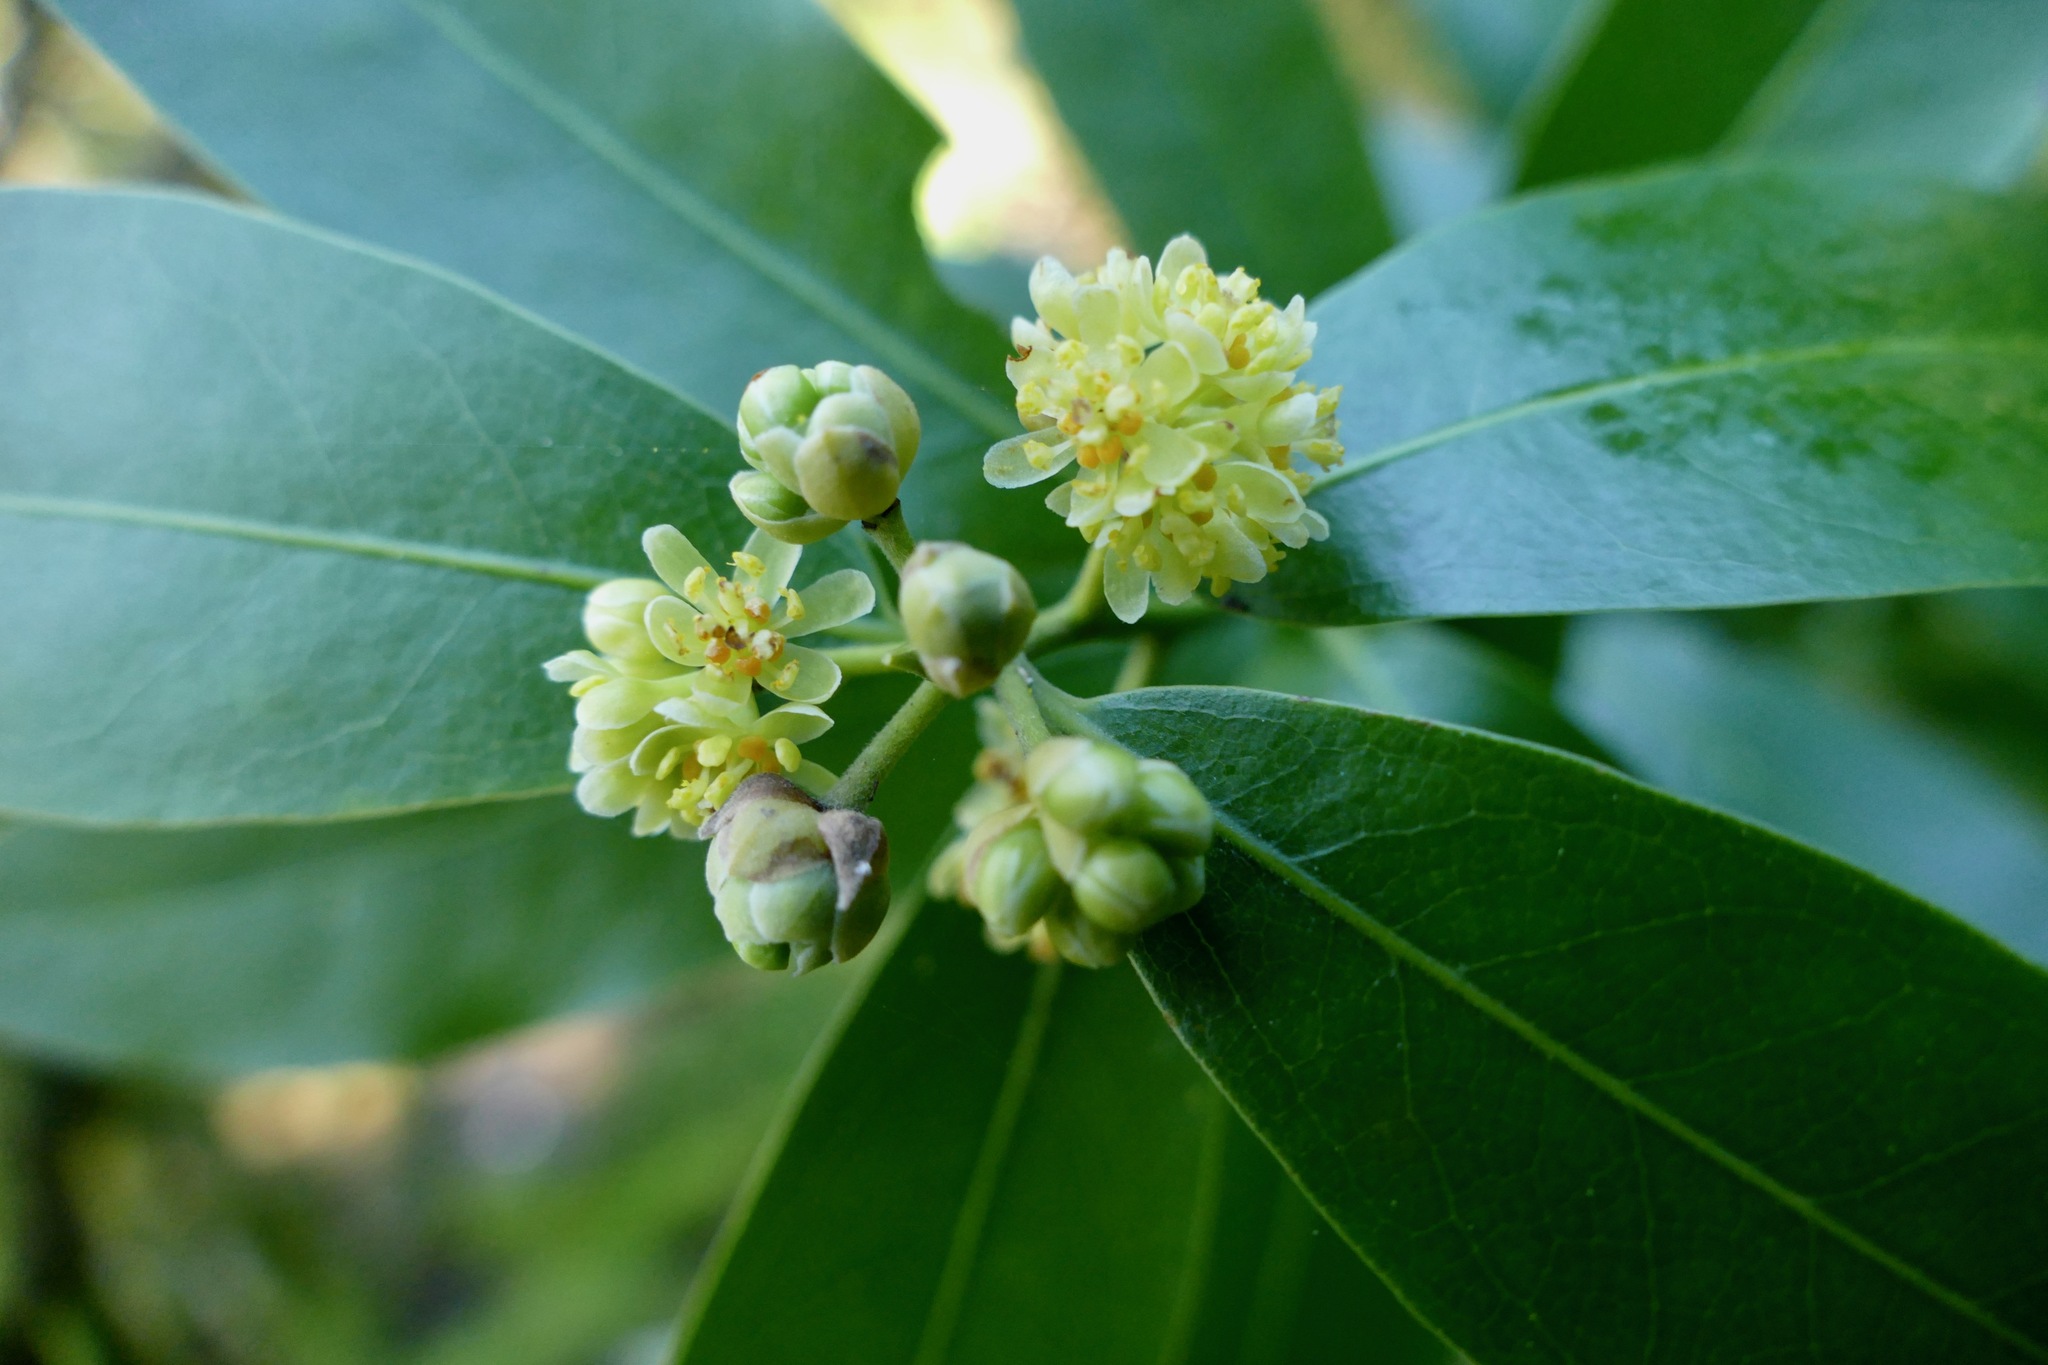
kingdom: Plantae
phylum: Tracheophyta
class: Magnoliopsida
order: Laurales
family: Lauraceae
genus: Umbellularia
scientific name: Umbellularia californica
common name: California bay
